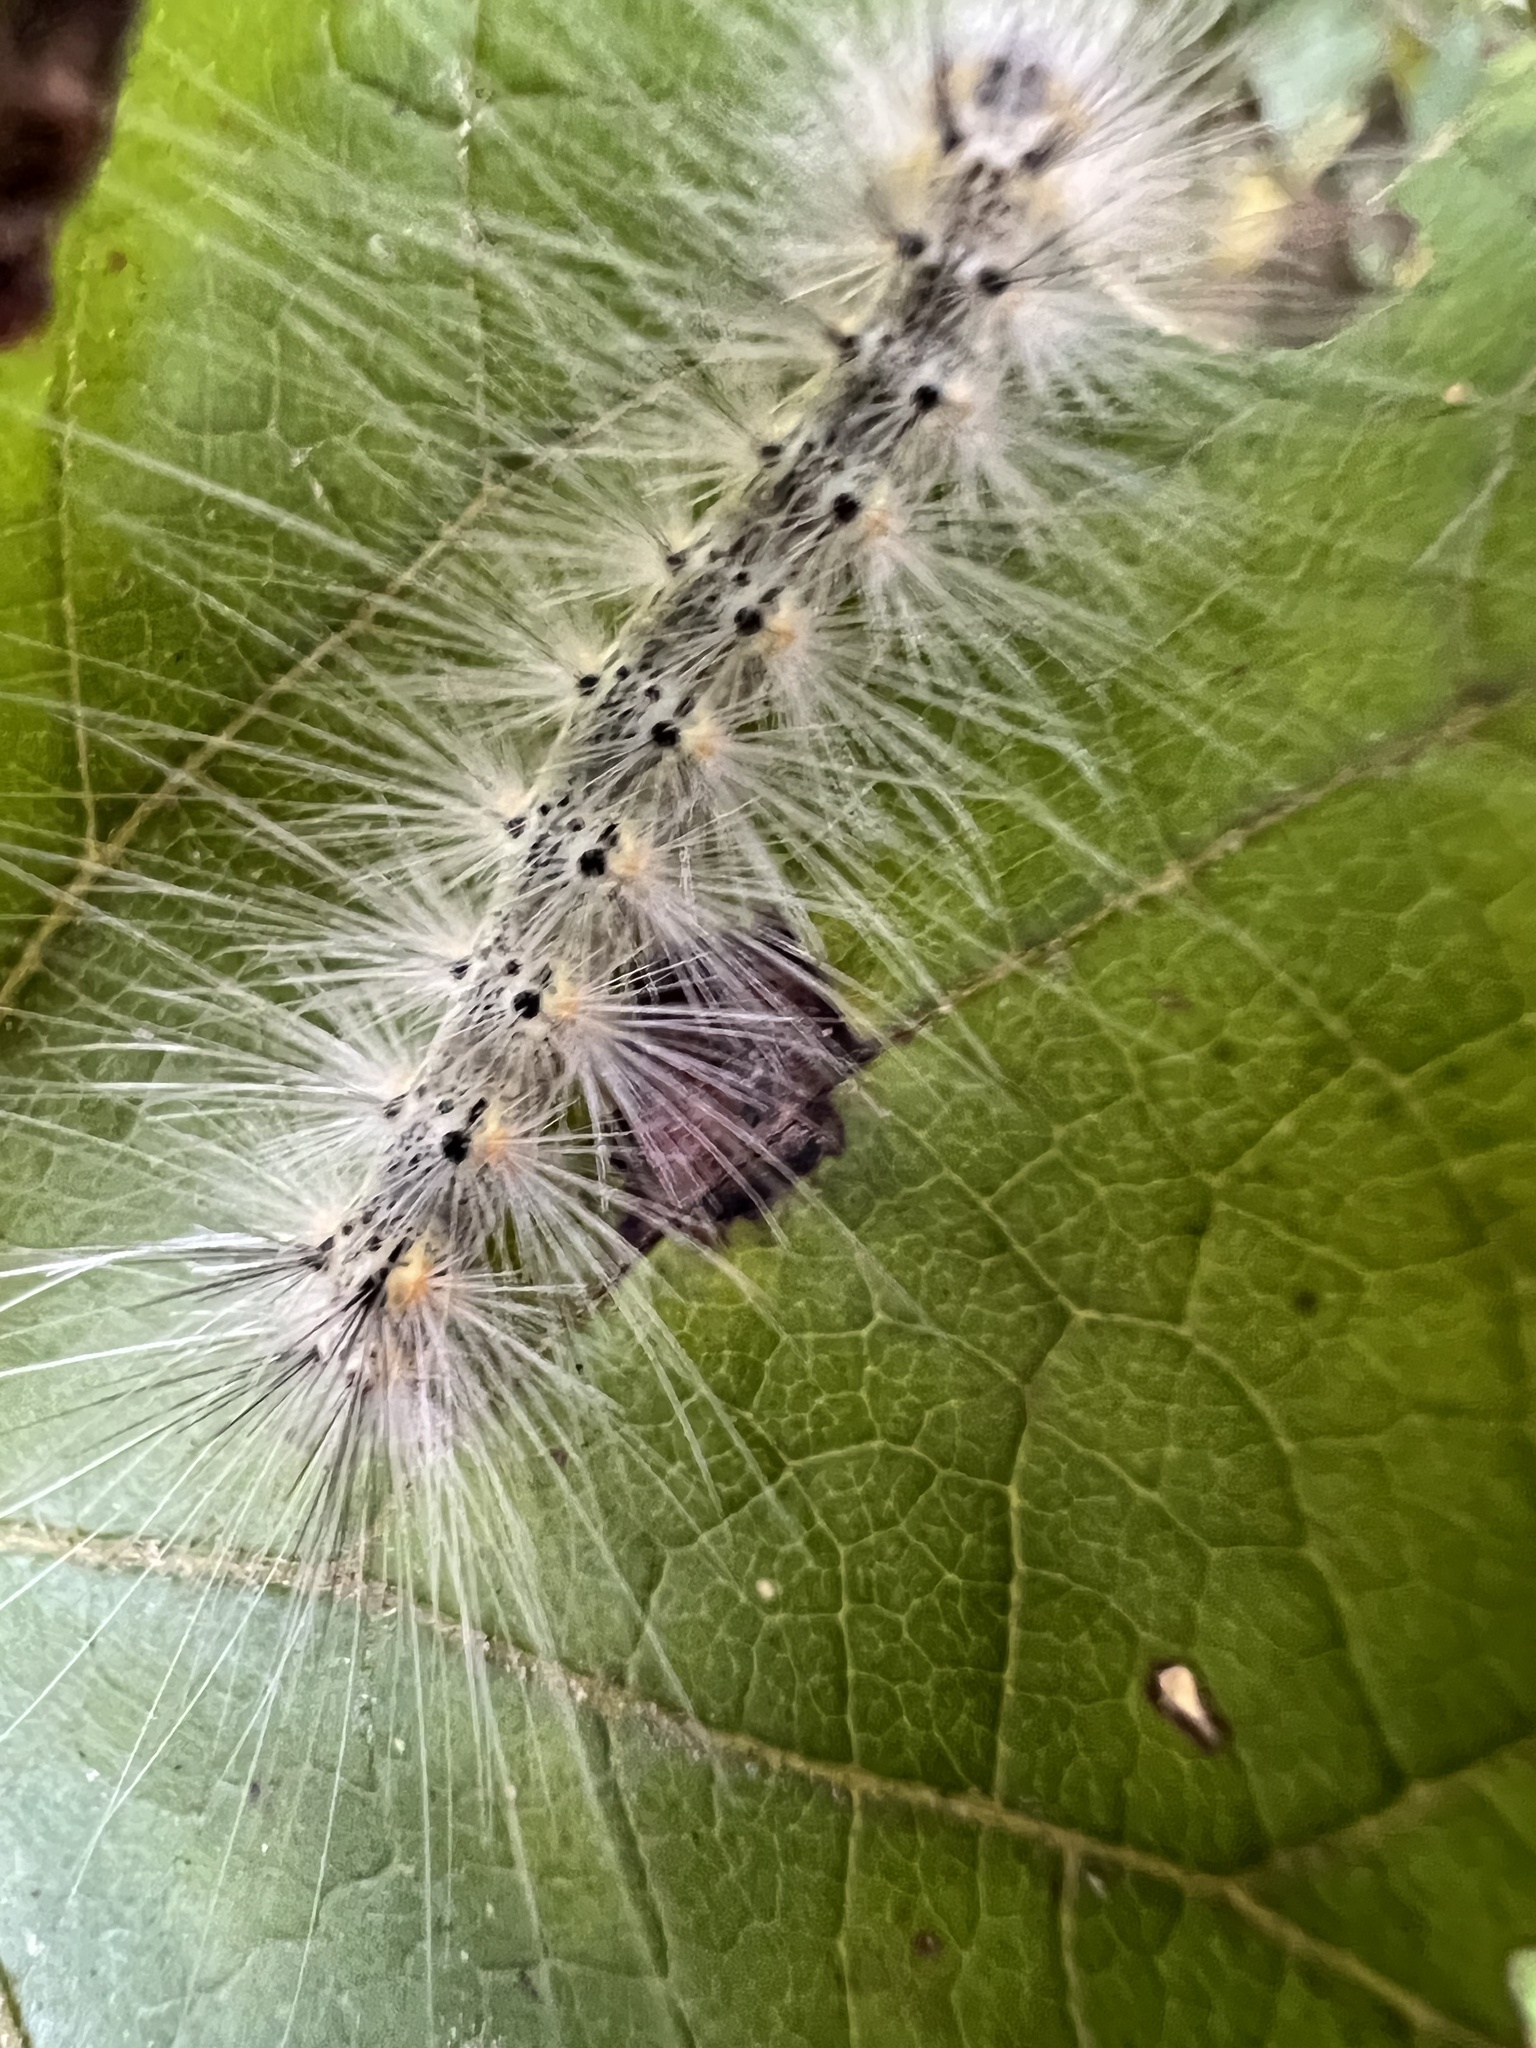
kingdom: Animalia
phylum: Arthropoda
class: Insecta
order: Lepidoptera
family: Erebidae
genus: Hyphantria
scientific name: Hyphantria cunea
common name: American white moth
